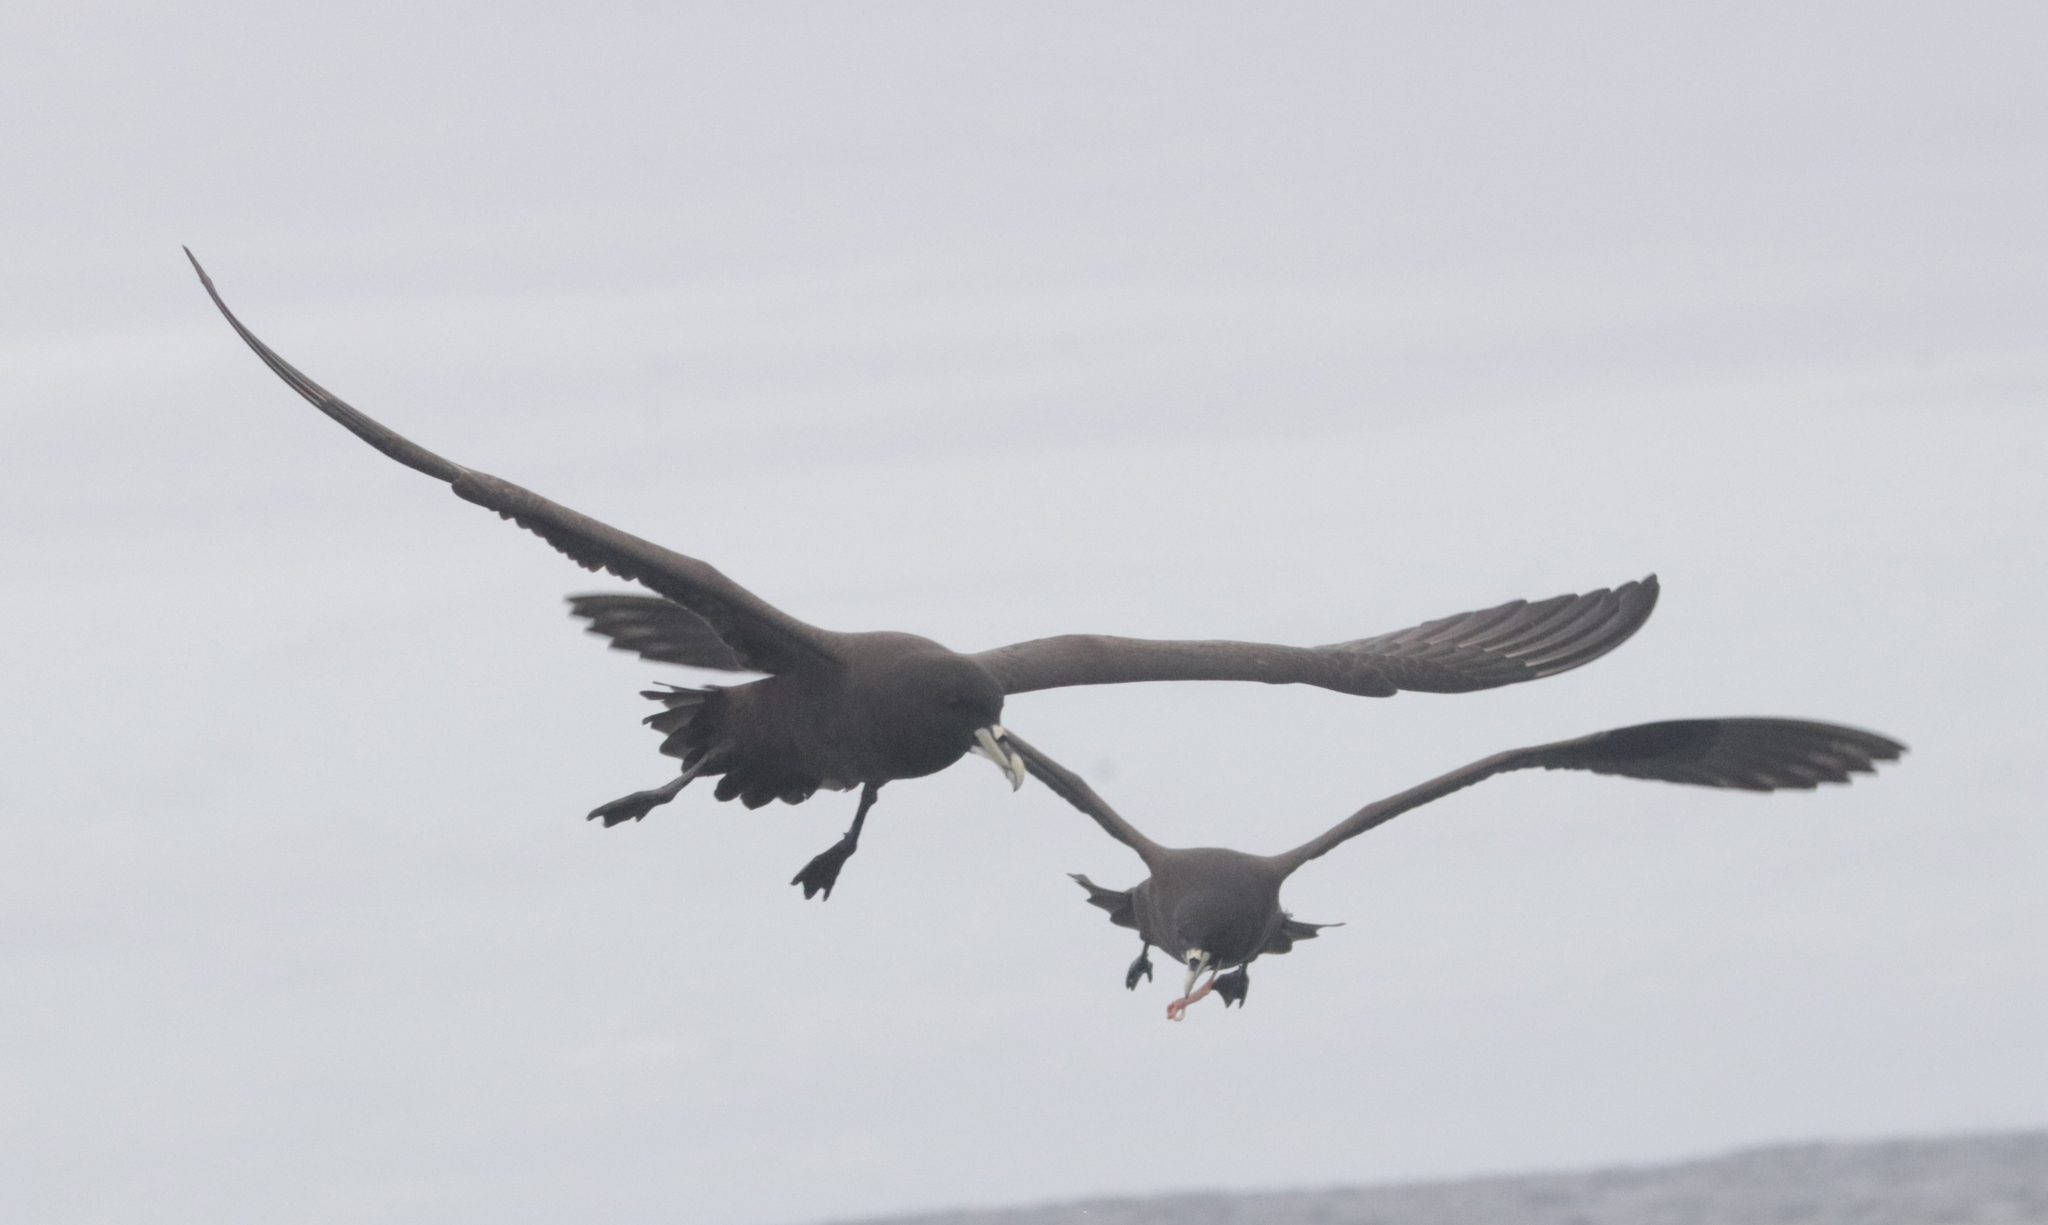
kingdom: Animalia
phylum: Chordata
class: Aves
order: Procellariiformes
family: Procellariidae
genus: Procellaria
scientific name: Procellaria aequinoctialis
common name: White-chinned petrel
